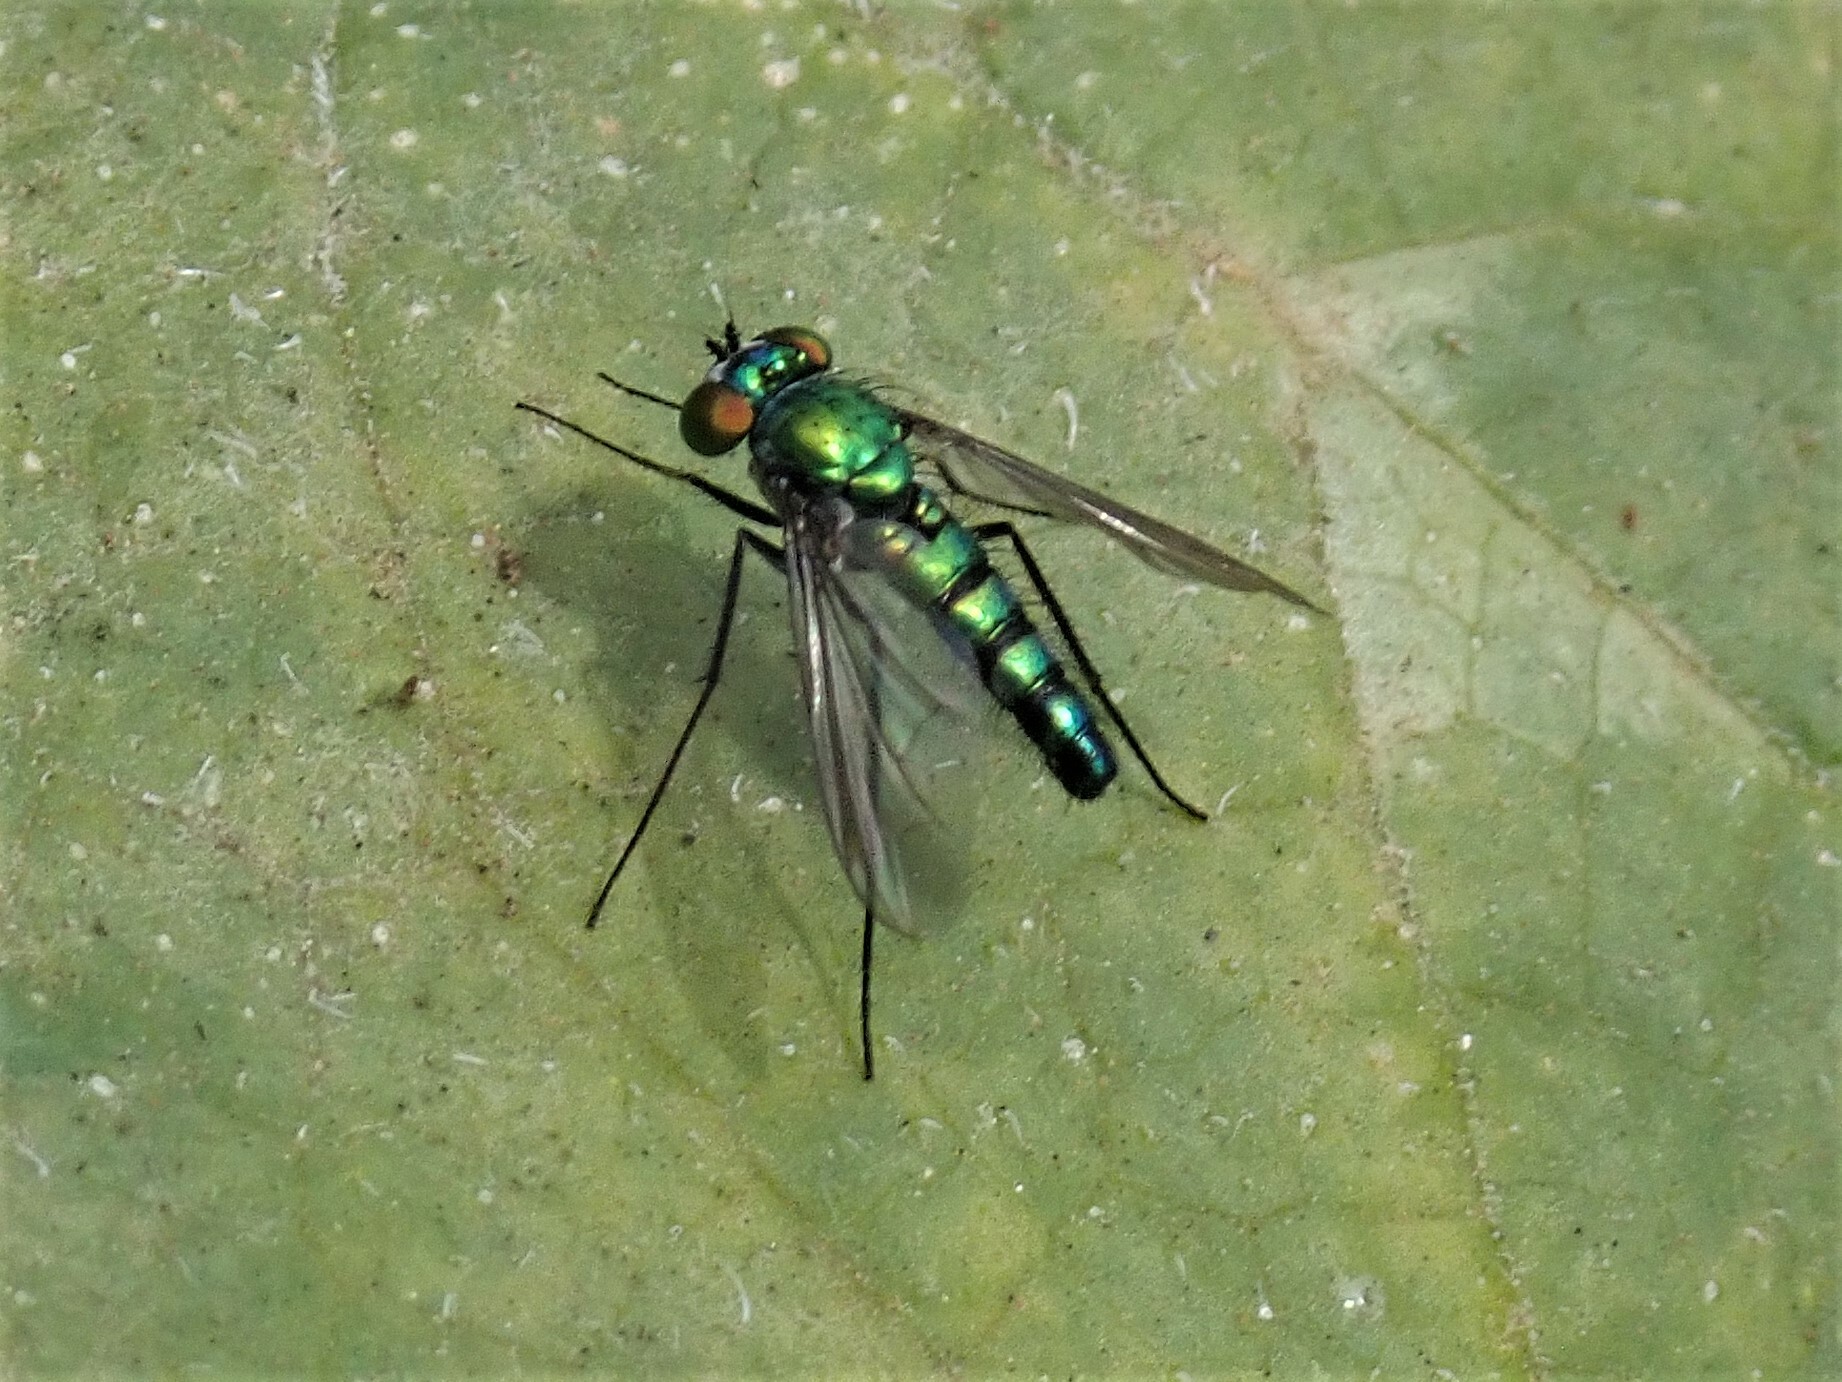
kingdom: Animalia
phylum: Arthropoda
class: Insecta
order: Diptera
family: Dolichopodidae
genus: Condylostylus
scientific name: Condylostylus longicornis
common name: Long-legged fly
